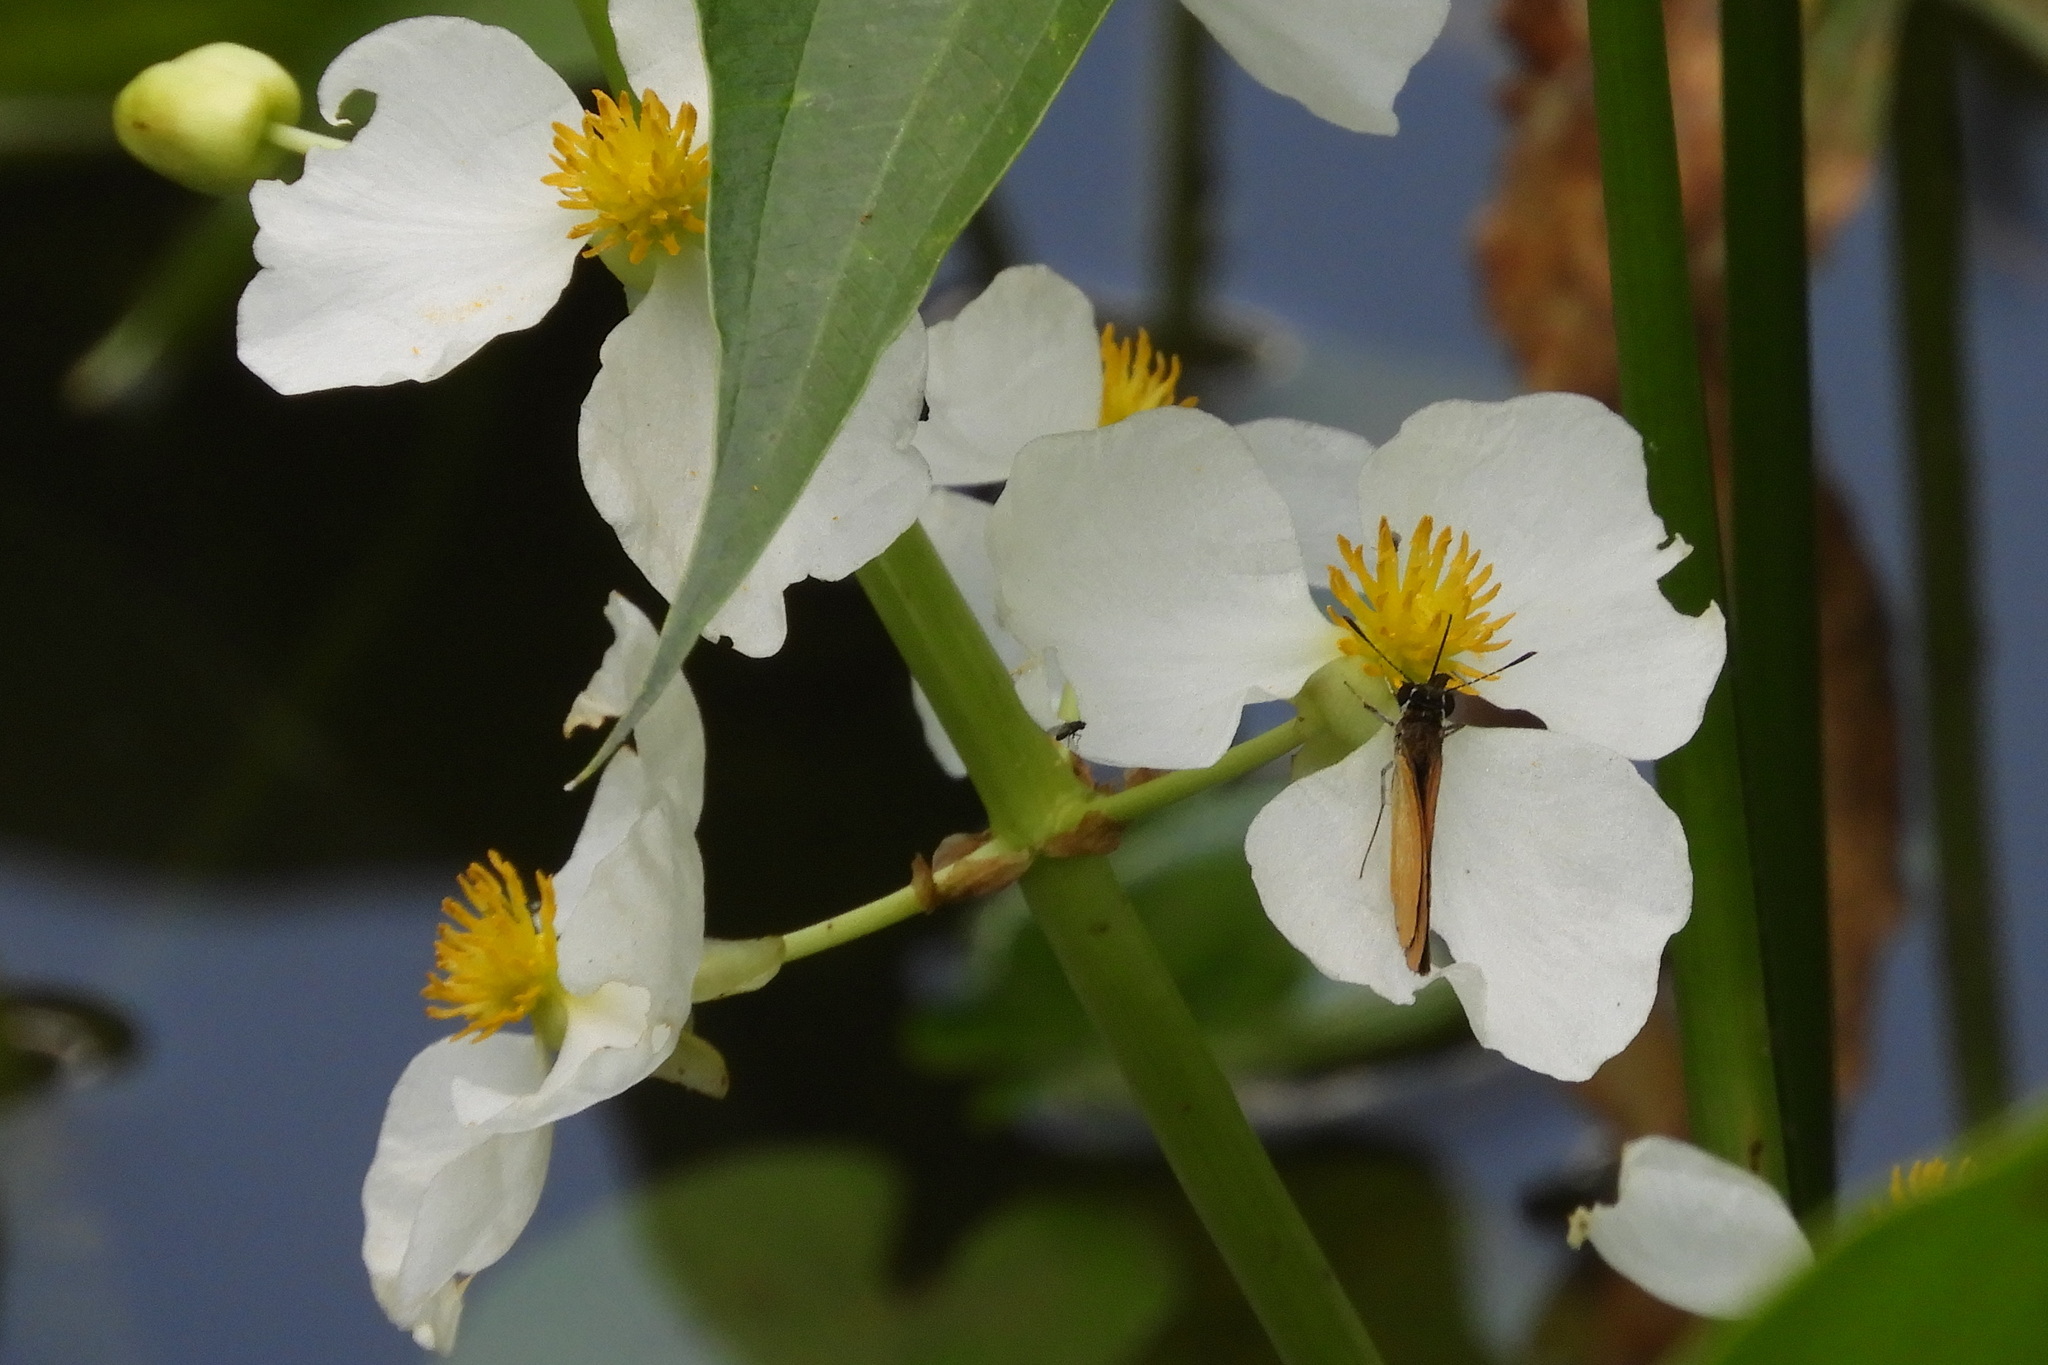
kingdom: Plantae
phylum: Tracheophyta
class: Liliopsida
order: Alismatales
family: Alismataceae
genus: Sagittaria
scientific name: Sagittaria latifolia
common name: Duck-potato
